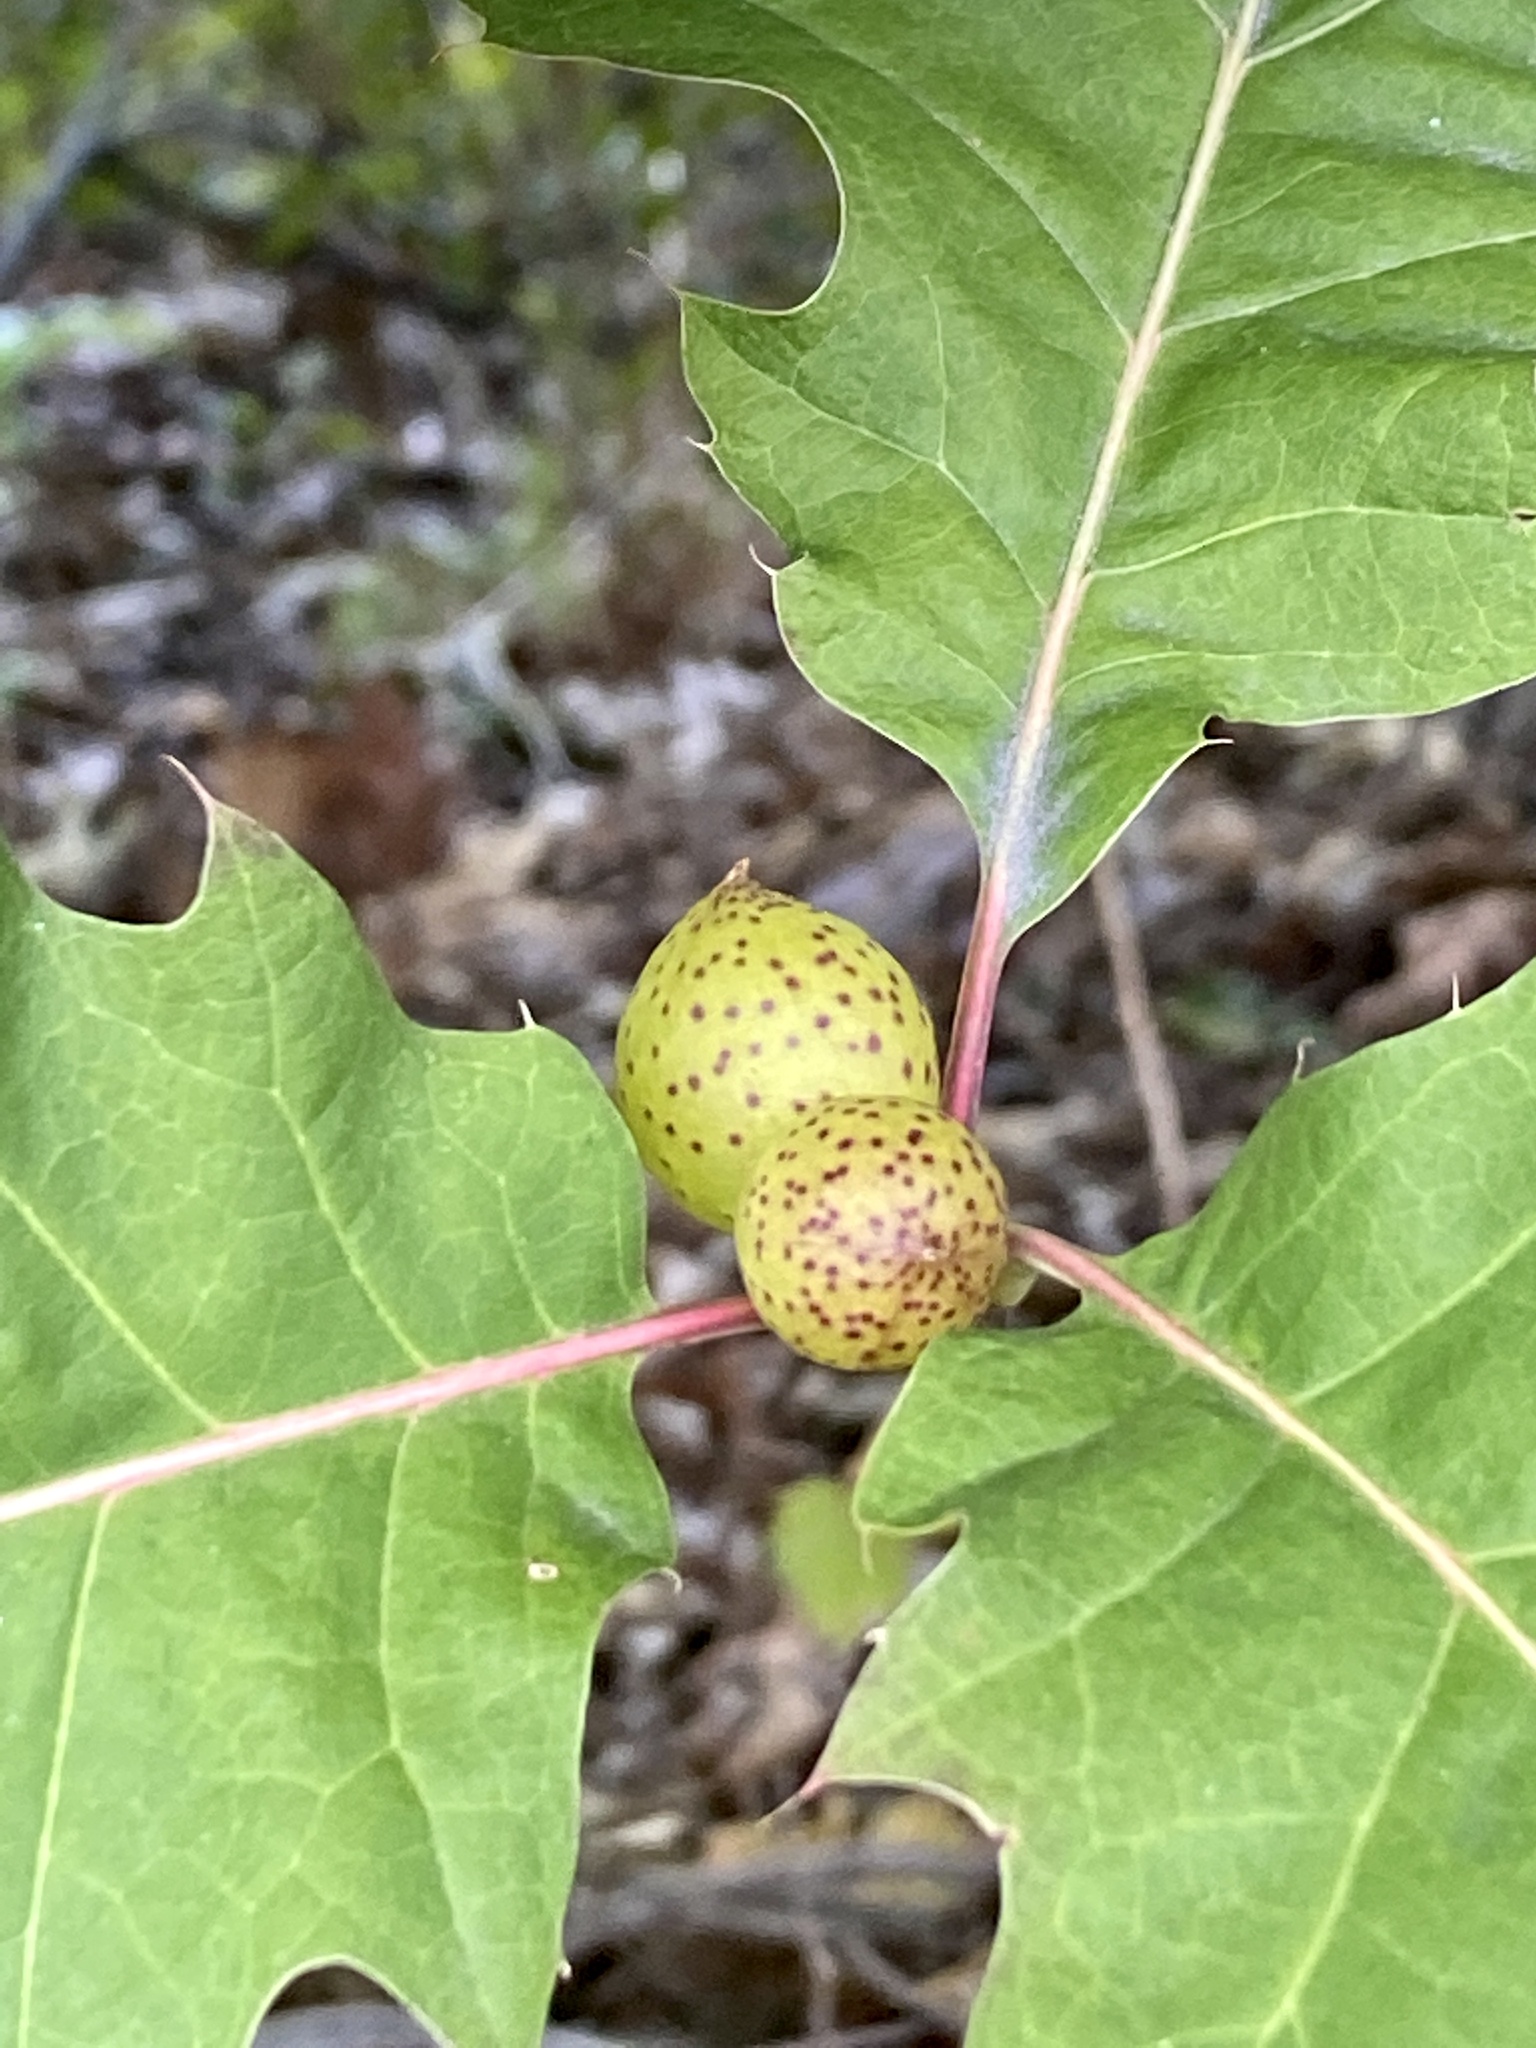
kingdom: Animalia
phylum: Arthropoda
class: Insecta
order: Hymenoptera
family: Cynipidae
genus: Amphibolips
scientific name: Amphibolips
